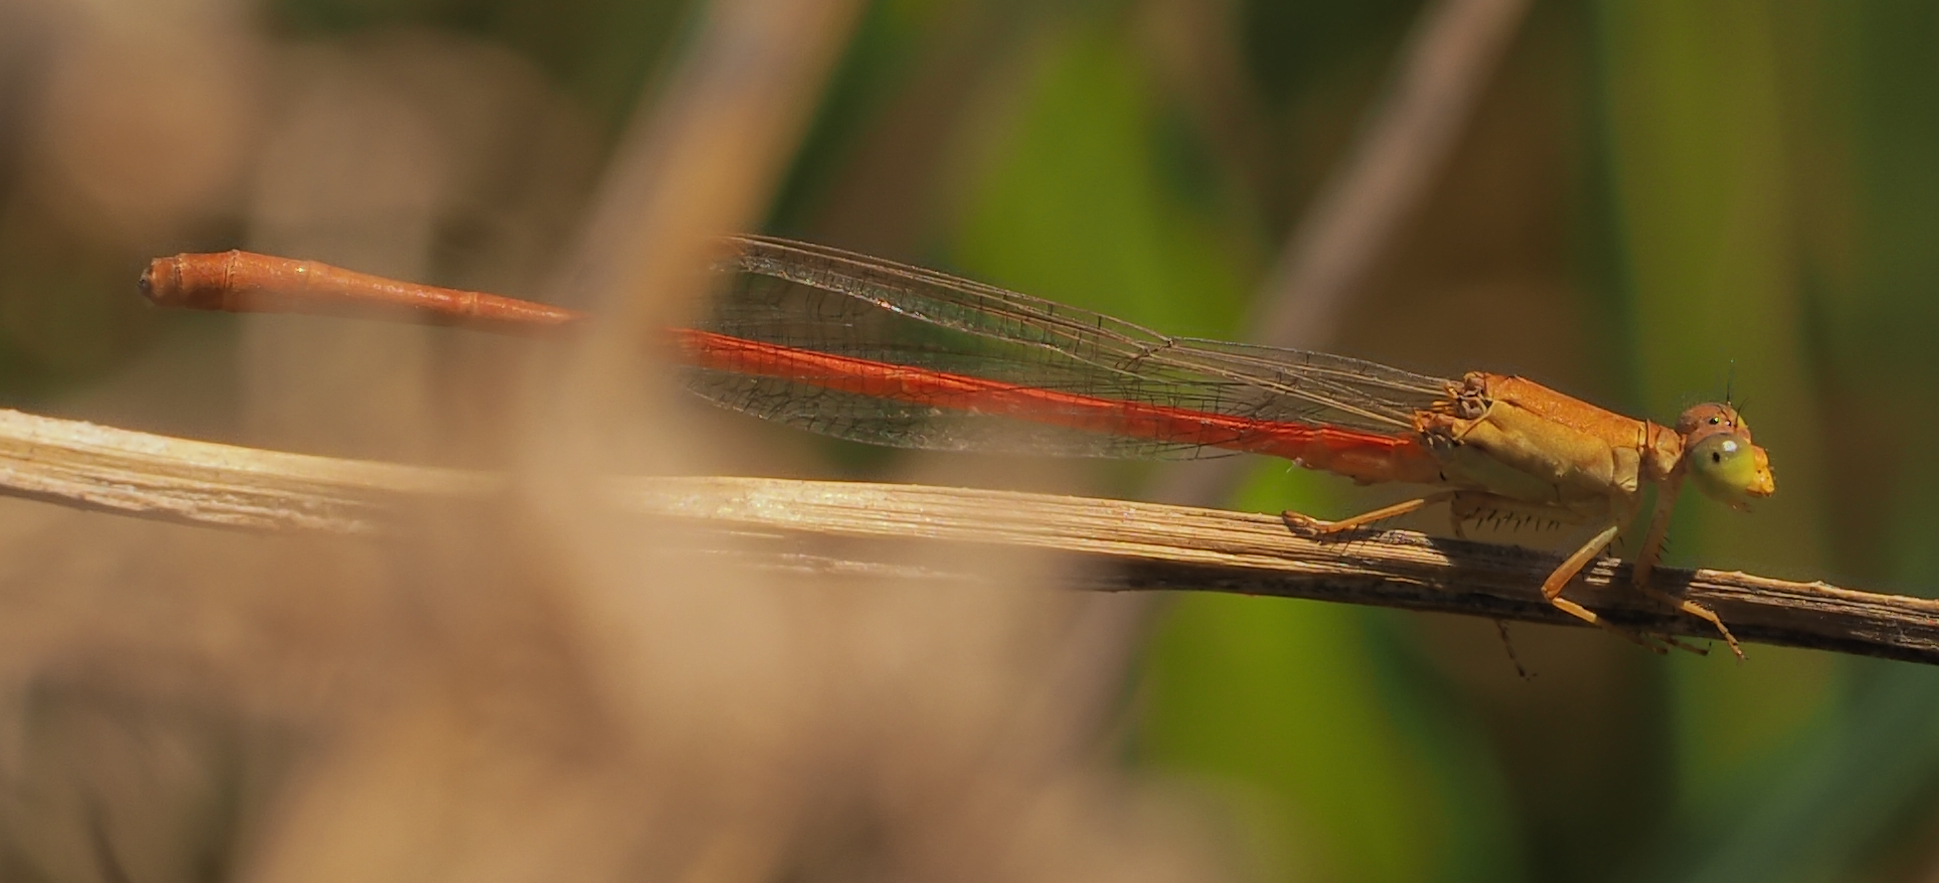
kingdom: Animalia
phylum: Arthropoda
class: Insecta
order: Odonata
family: Coenagrionidae
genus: Ceriagrion
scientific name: Ceriagrion glabrum
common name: Common pond damsel
